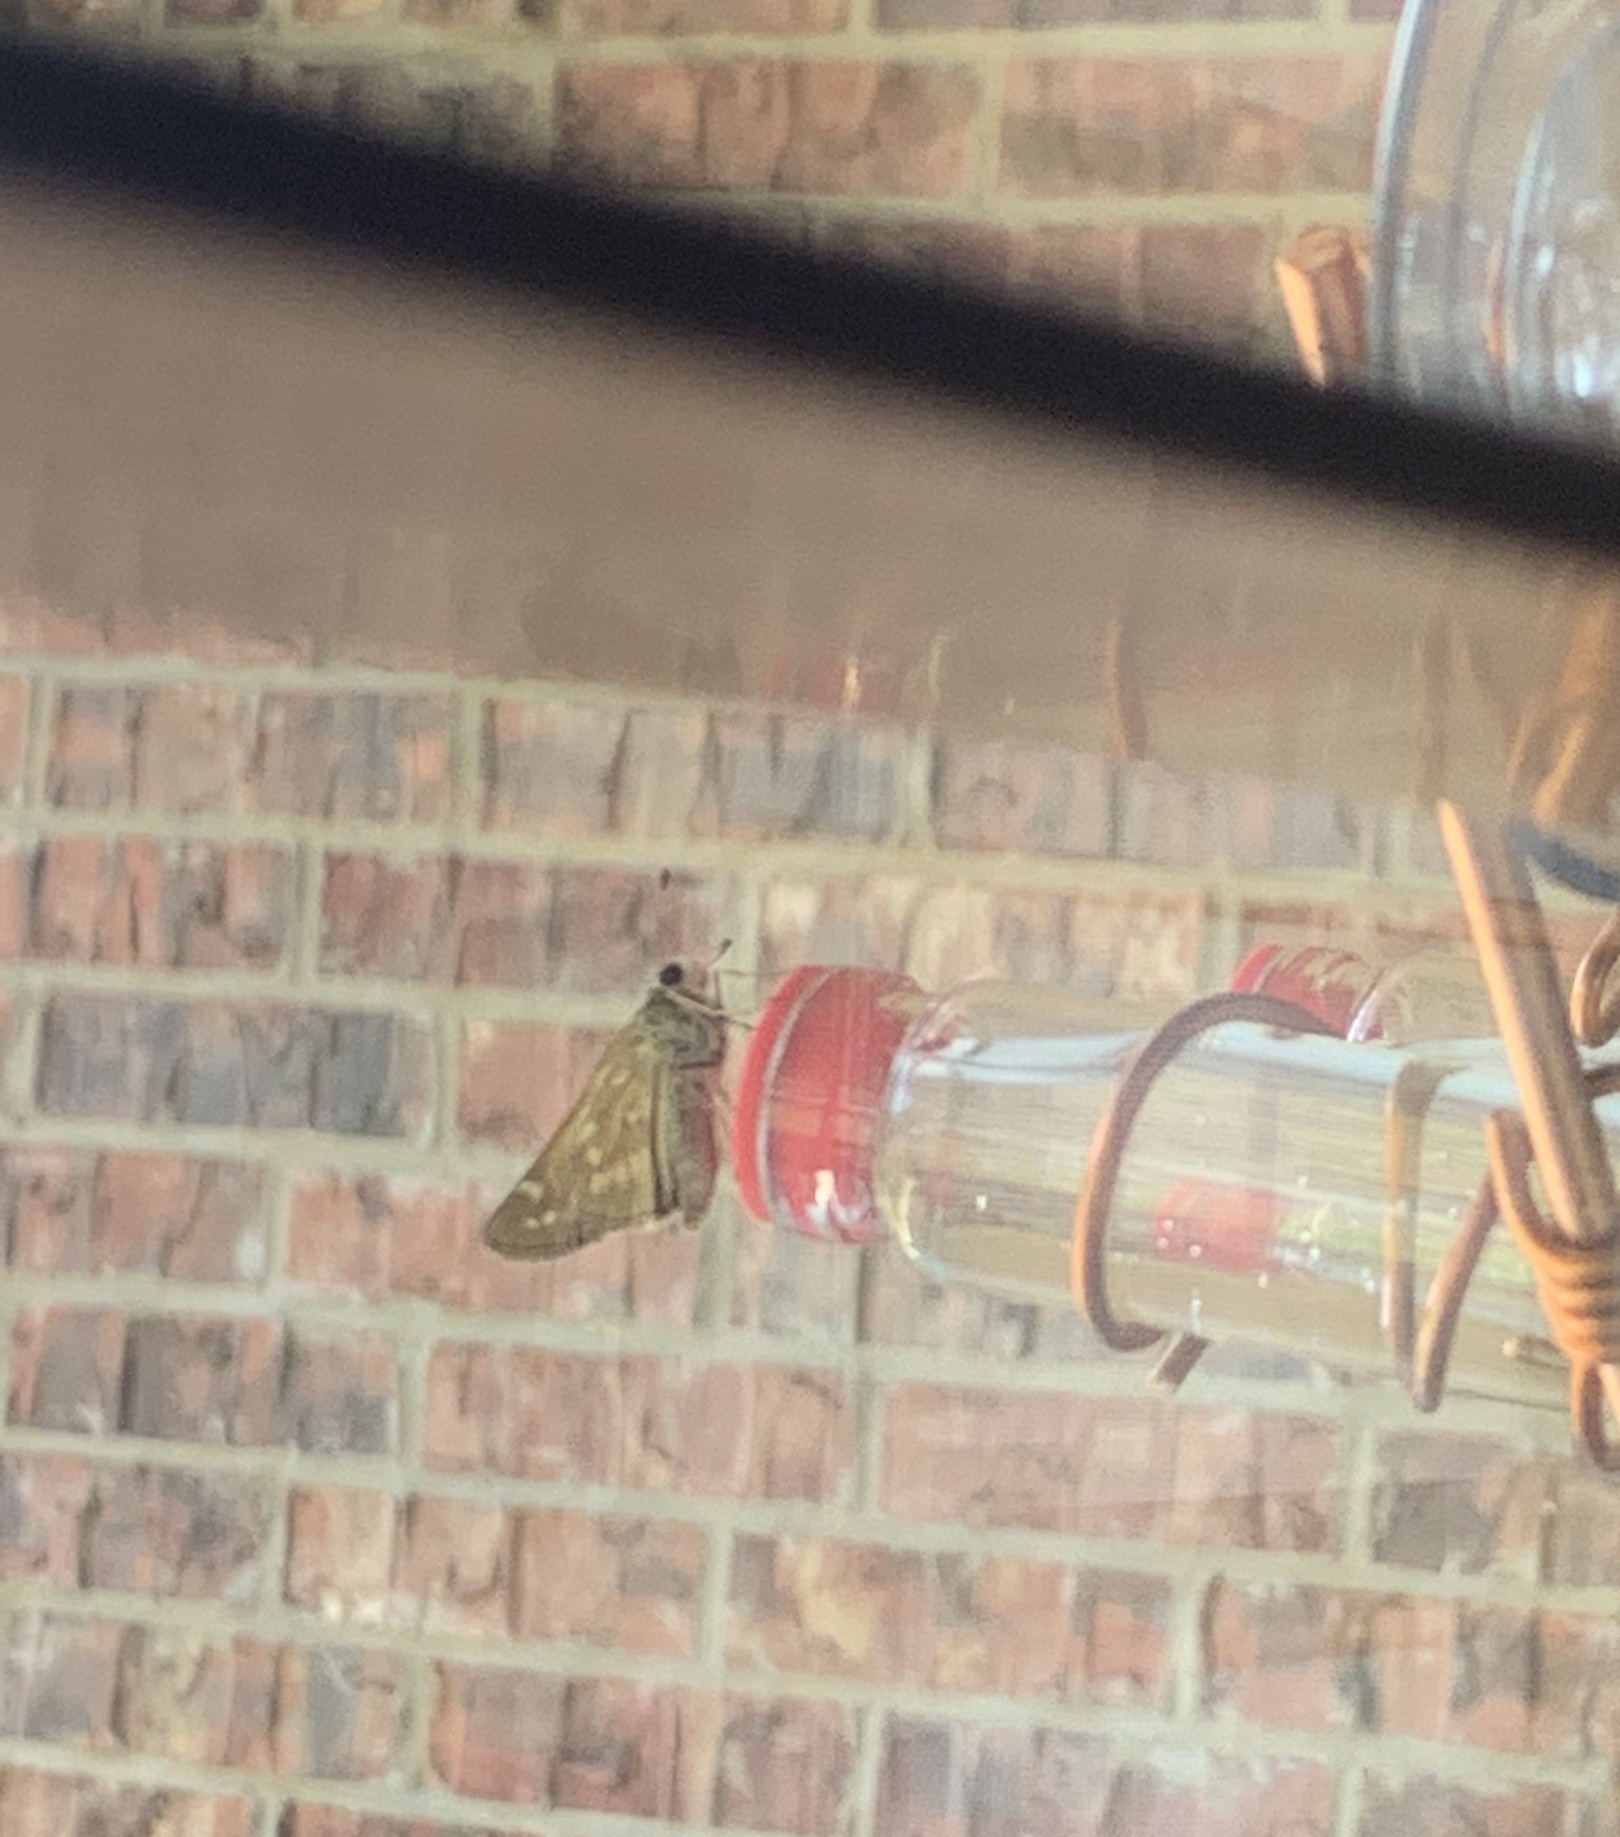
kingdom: Animalia
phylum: Arthropoda
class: Insecta
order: Lepidoptera
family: Hesperiidae
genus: Atalopedes
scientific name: Atalopedes
